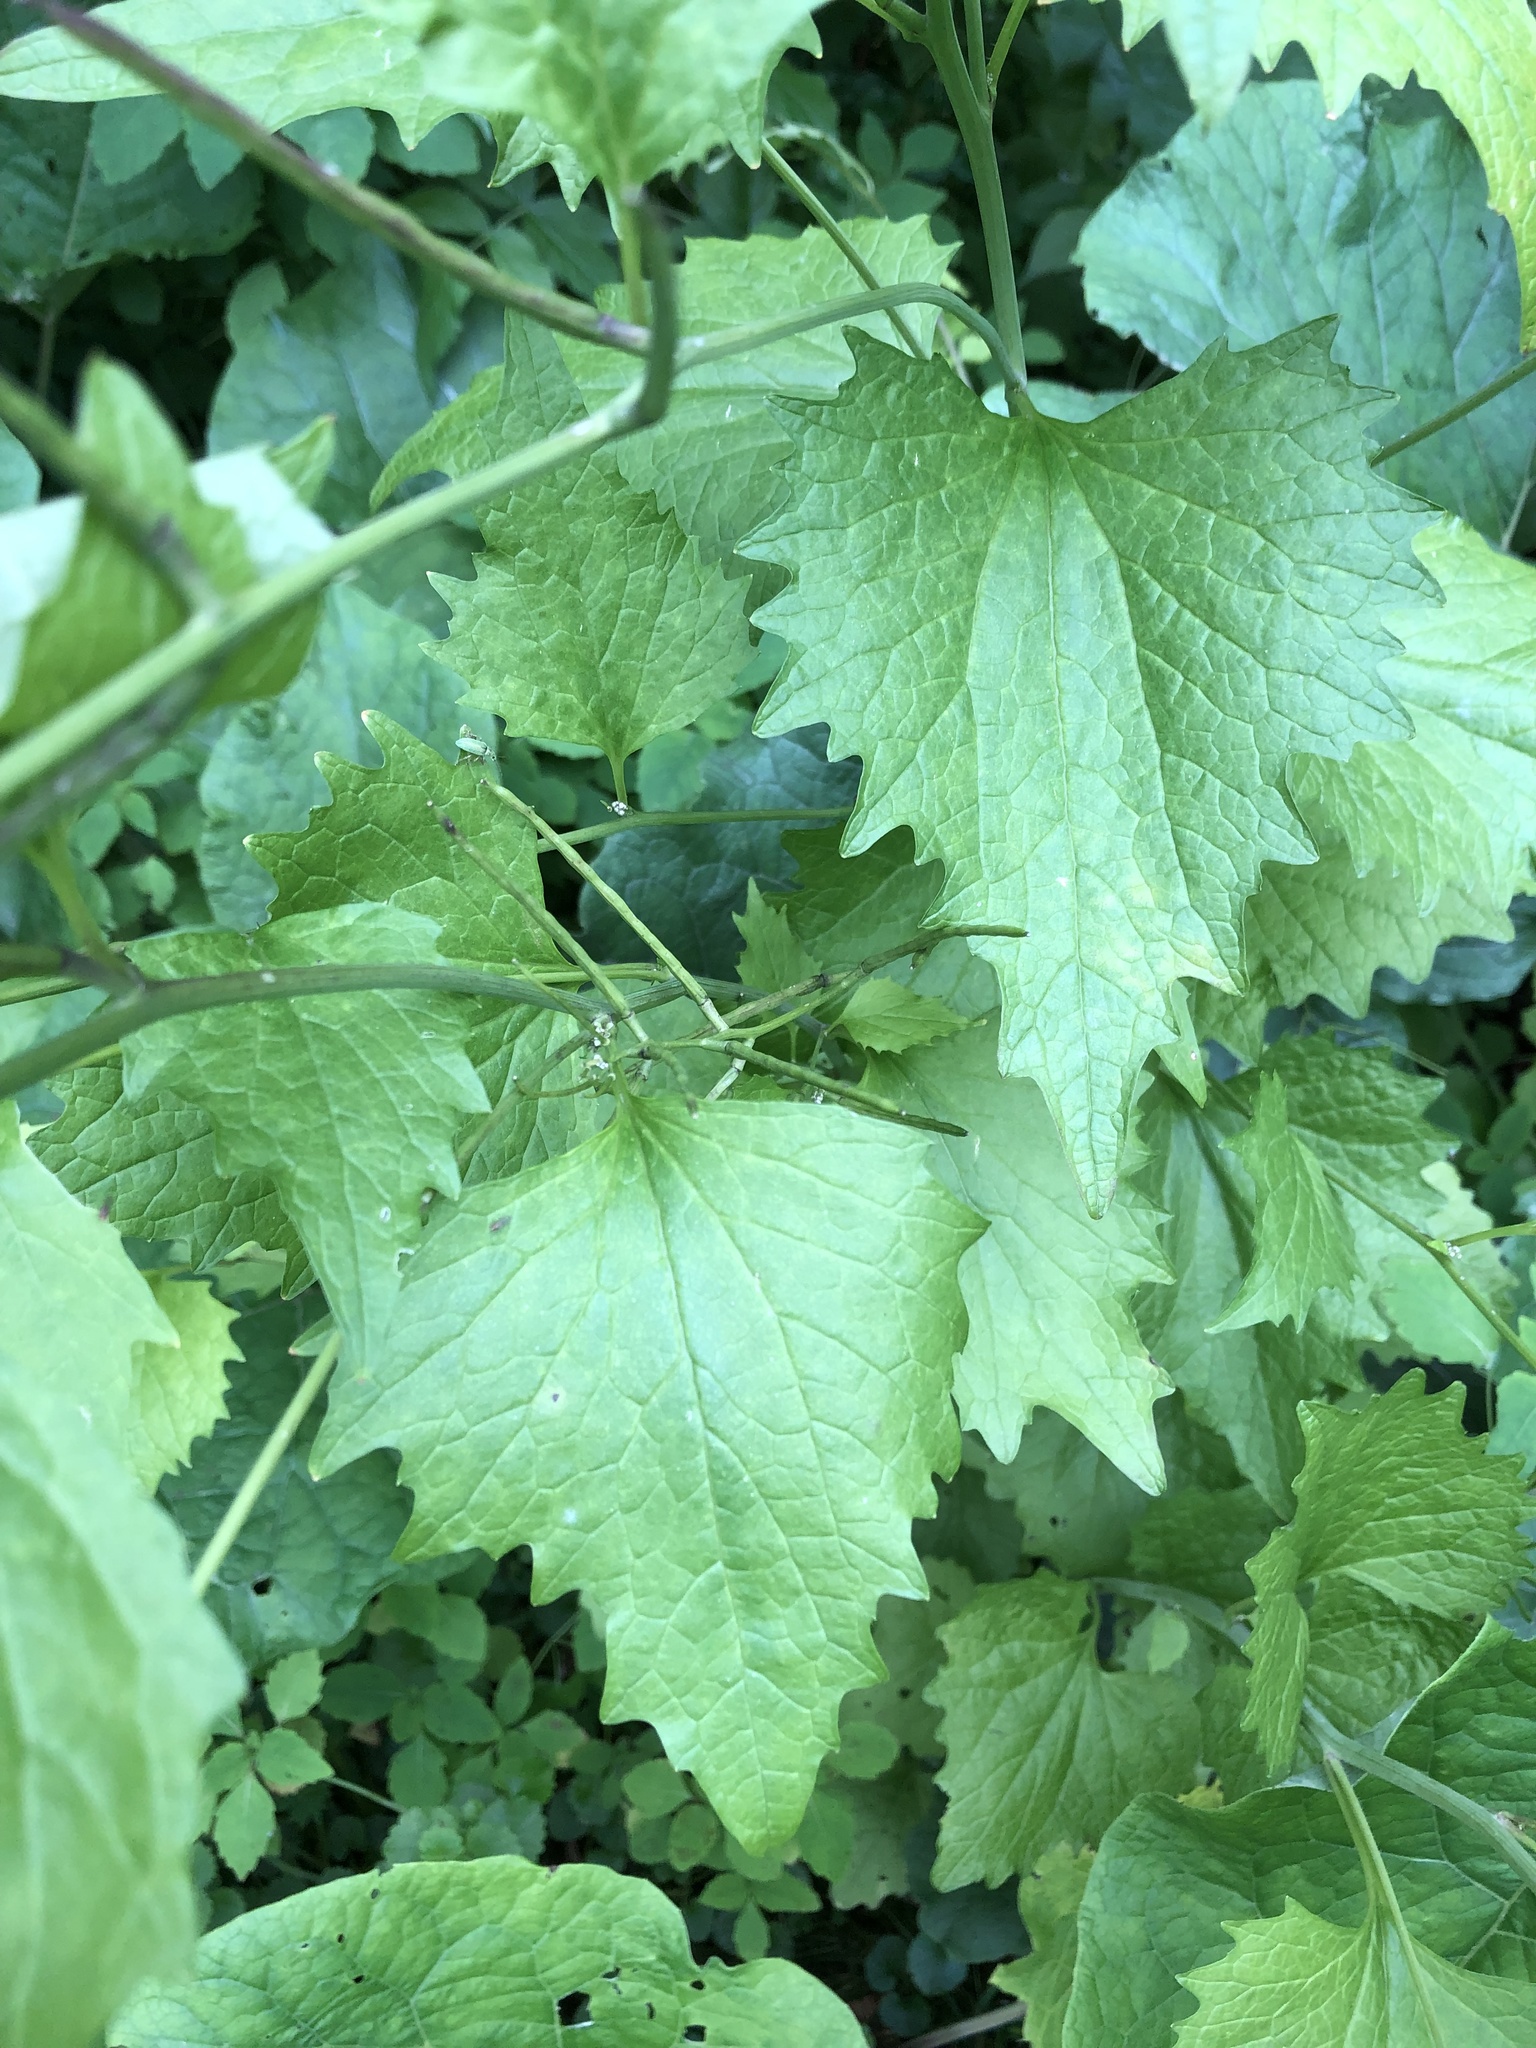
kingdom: Plantae
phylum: Tracheophyta
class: Magnoliopsida
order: Brassicales
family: Brassicaceae
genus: Alliaria
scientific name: Alliaria petiolata
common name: Garlic mustard
